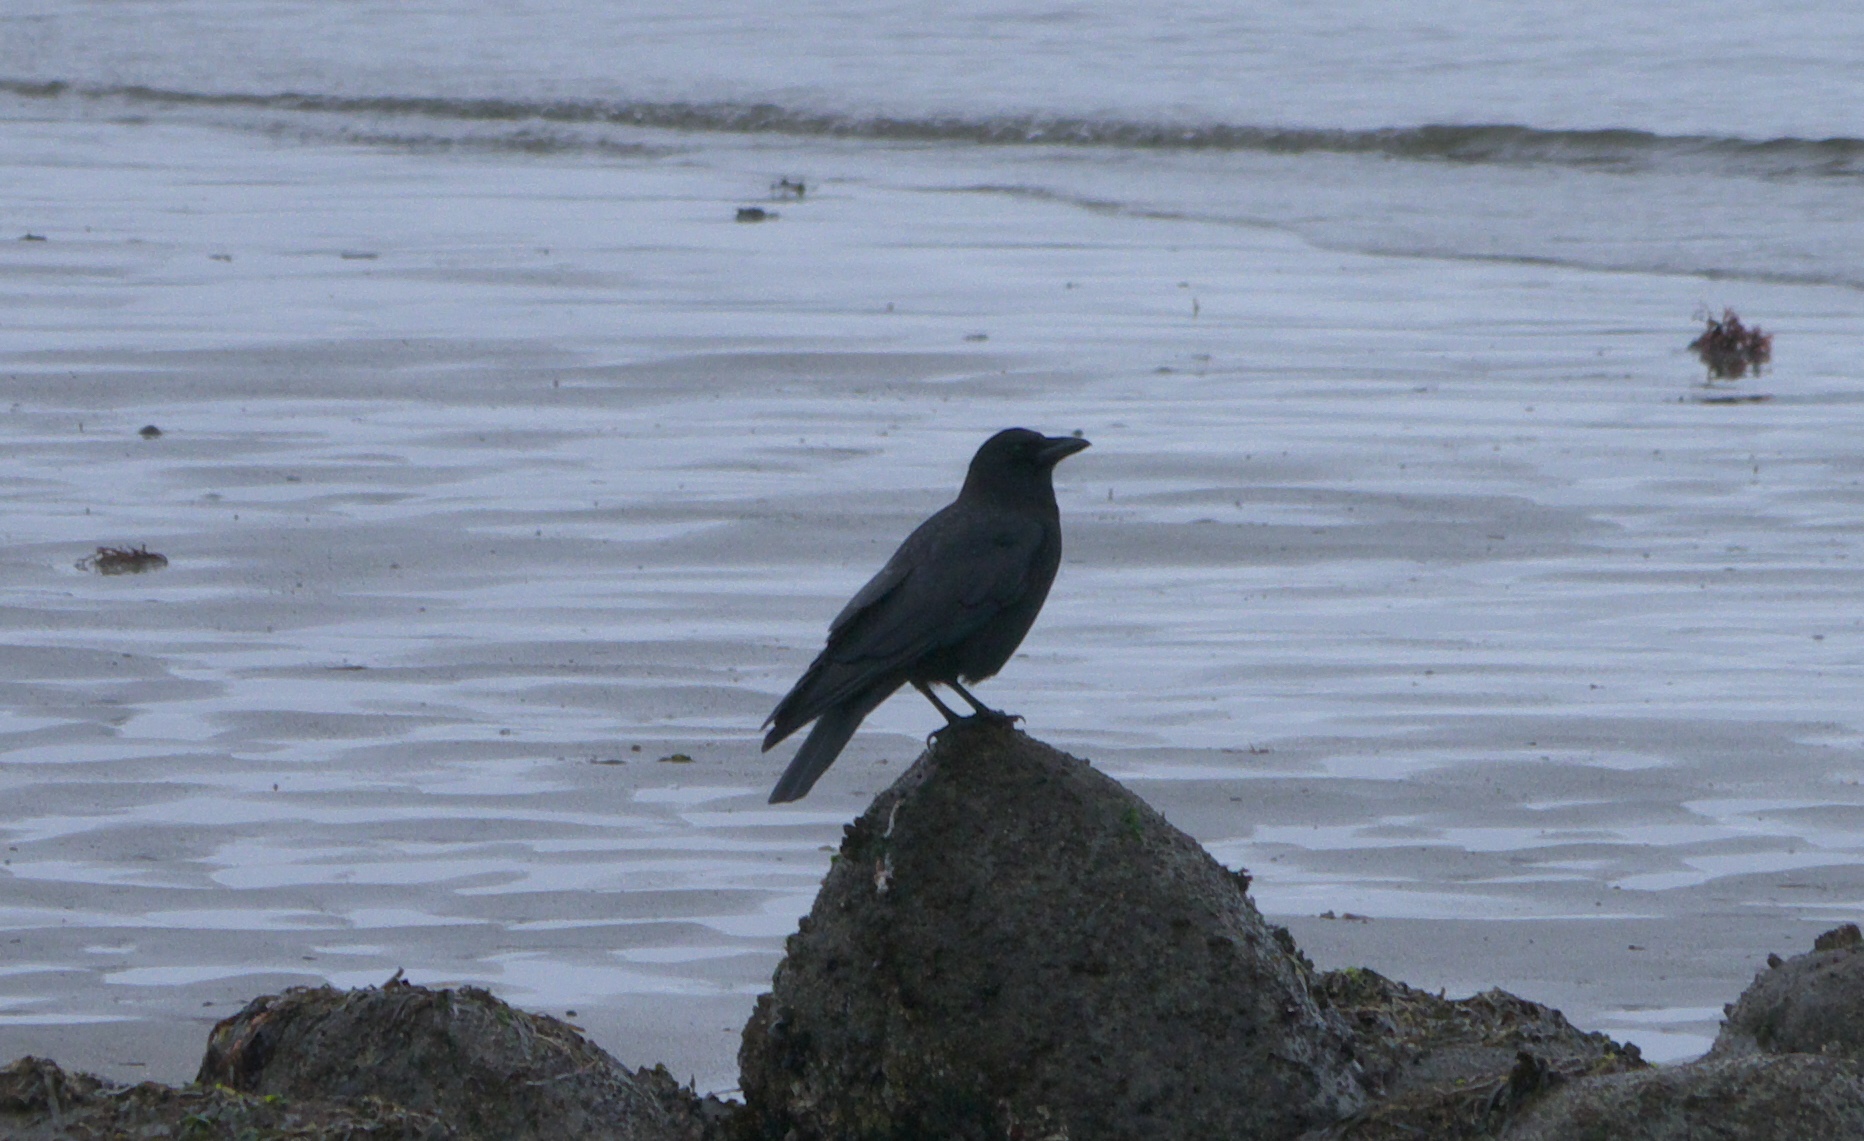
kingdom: Animalia
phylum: Chordata
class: Aves
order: Passeriformes
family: Corvidae
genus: Corvus
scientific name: Corvus brachyrhynchos
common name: American crow
